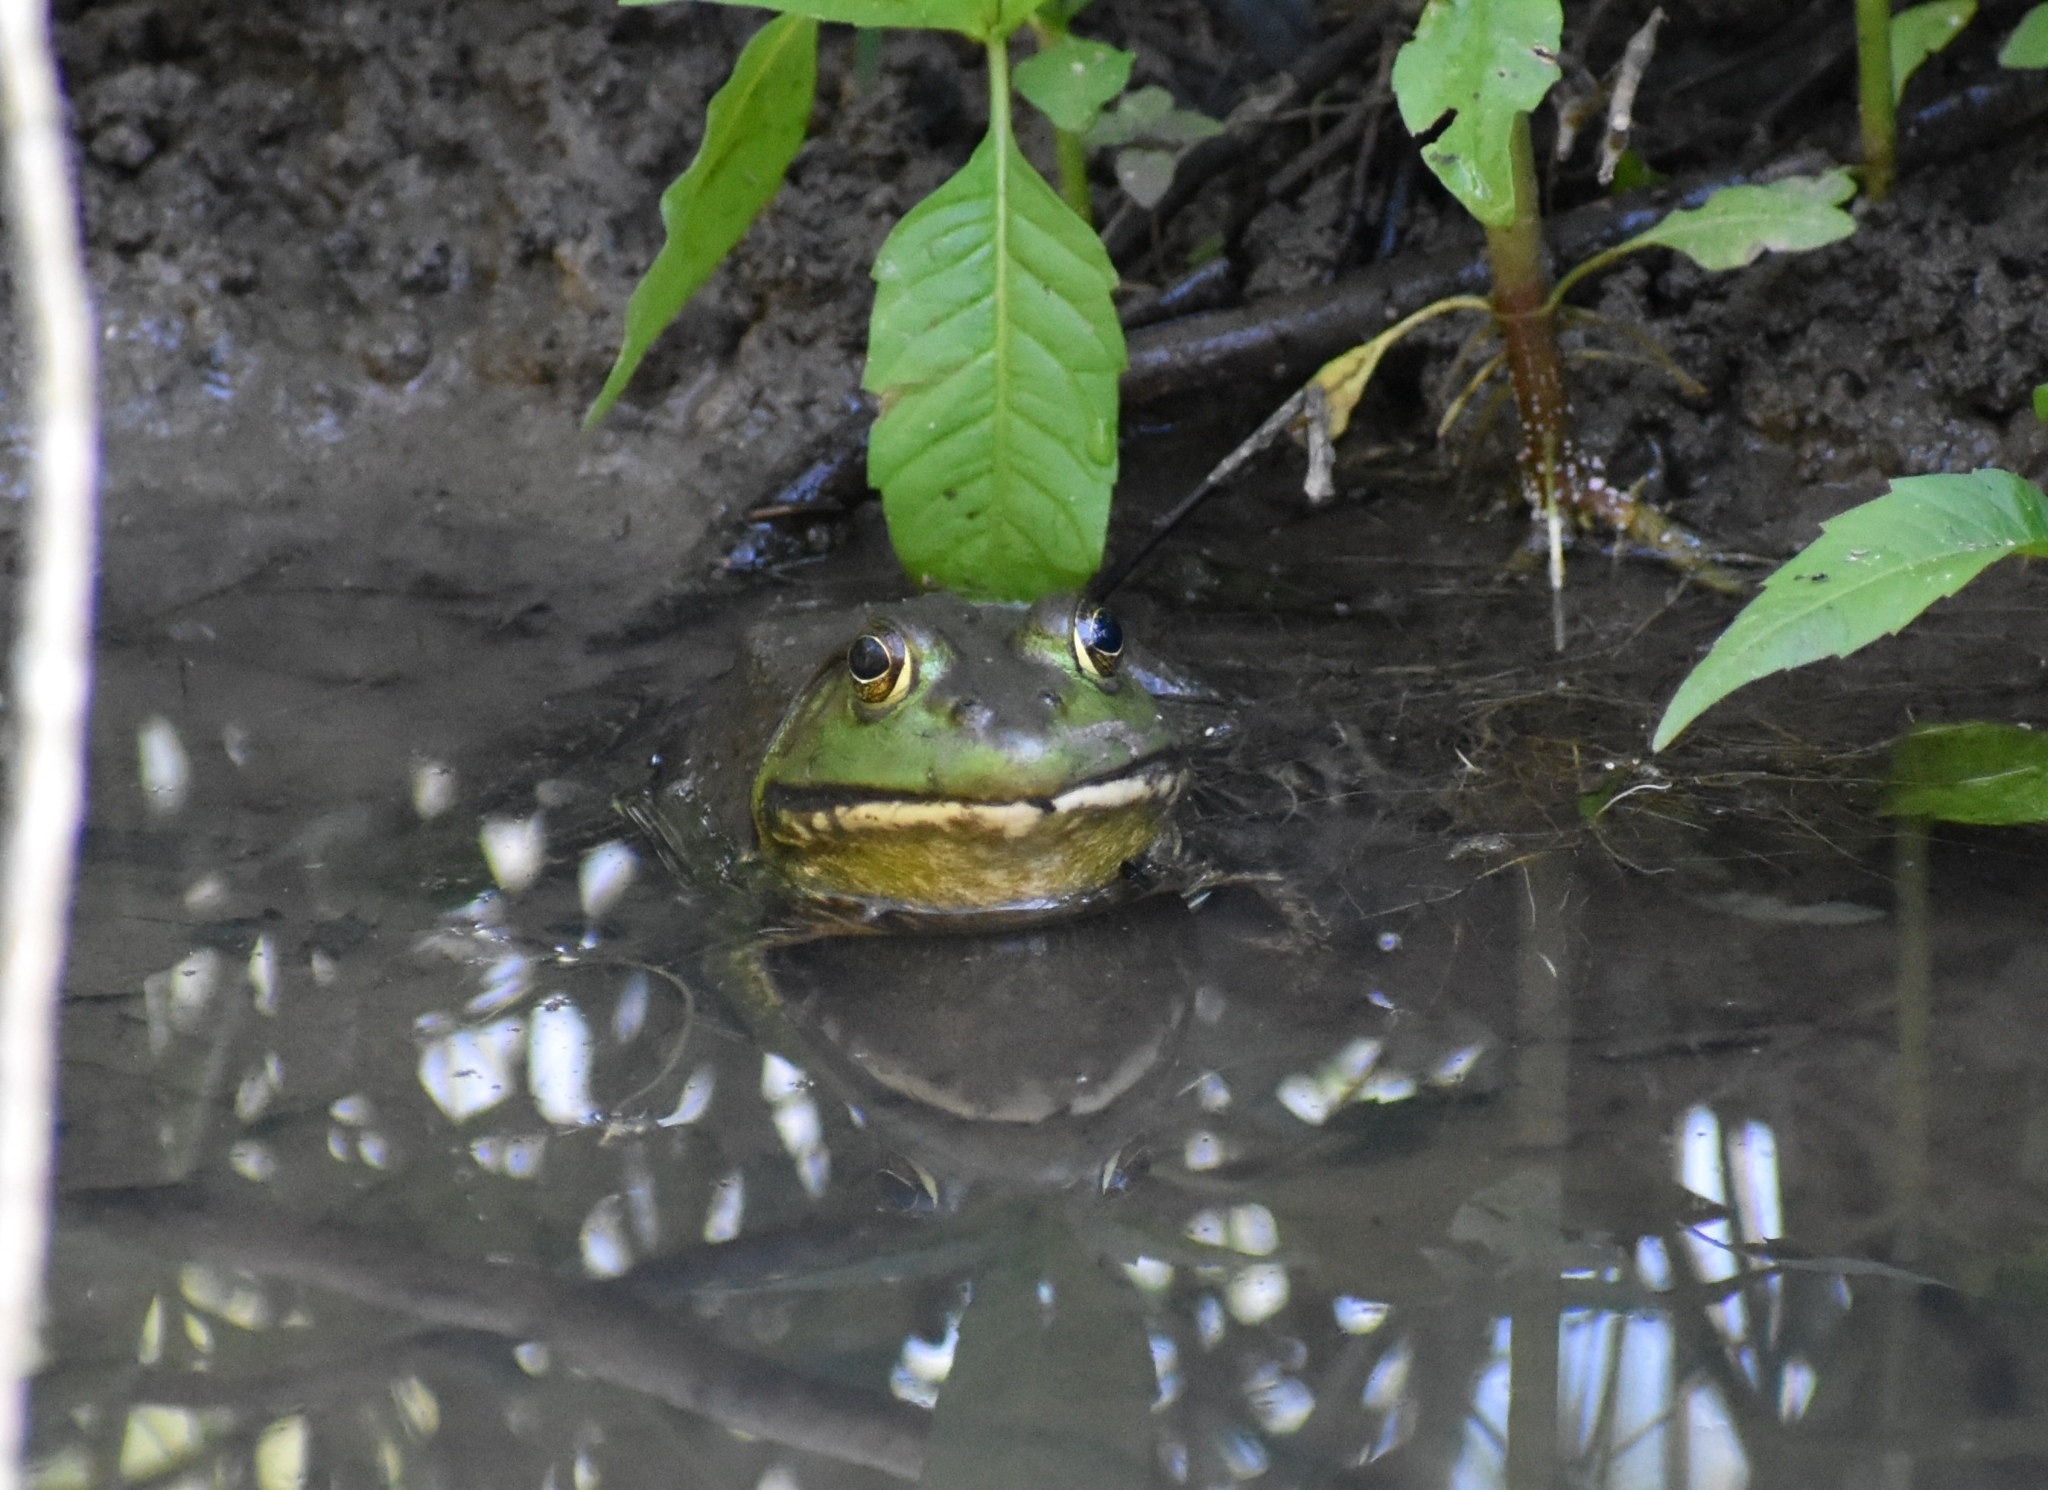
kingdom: Animalia
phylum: Chordata
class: Amphibia
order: Anura
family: Ranidae
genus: Lithobates
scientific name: Lithobates catesbeianus
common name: American bullfrog
